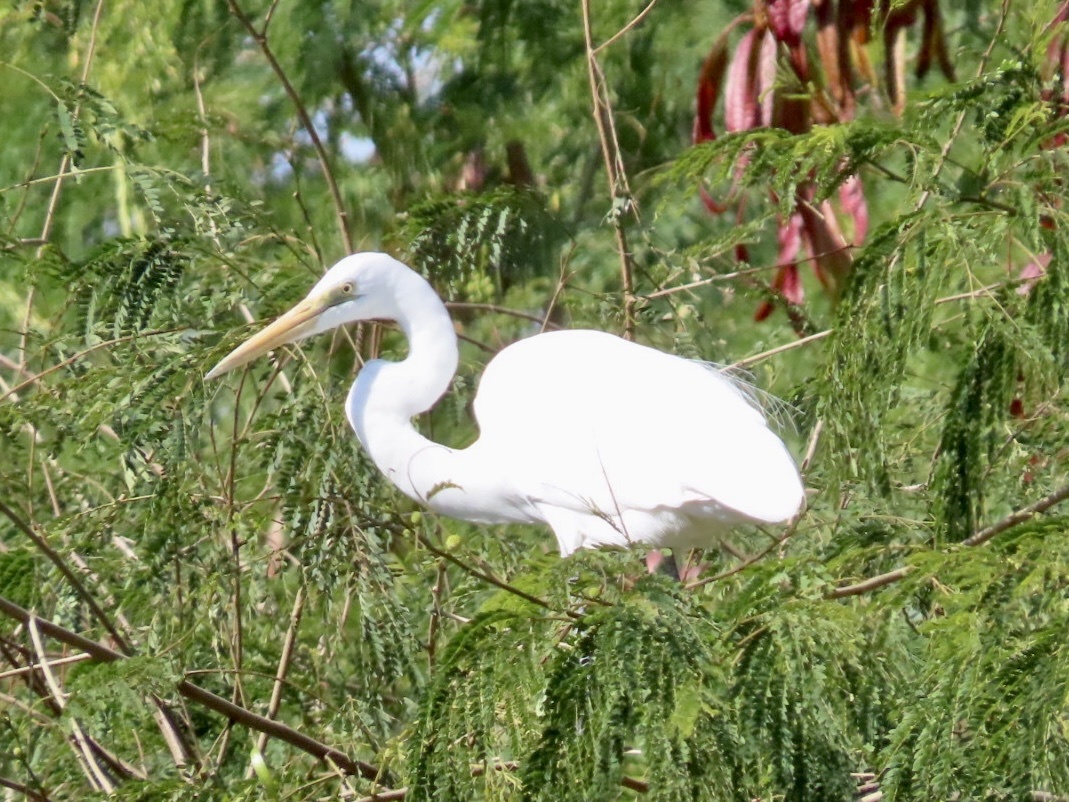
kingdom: Animalia
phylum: Chordata
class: Aves
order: Pelecaniformes
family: Ardeidae
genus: Ardea
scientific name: Ardea alba
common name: Great egret
